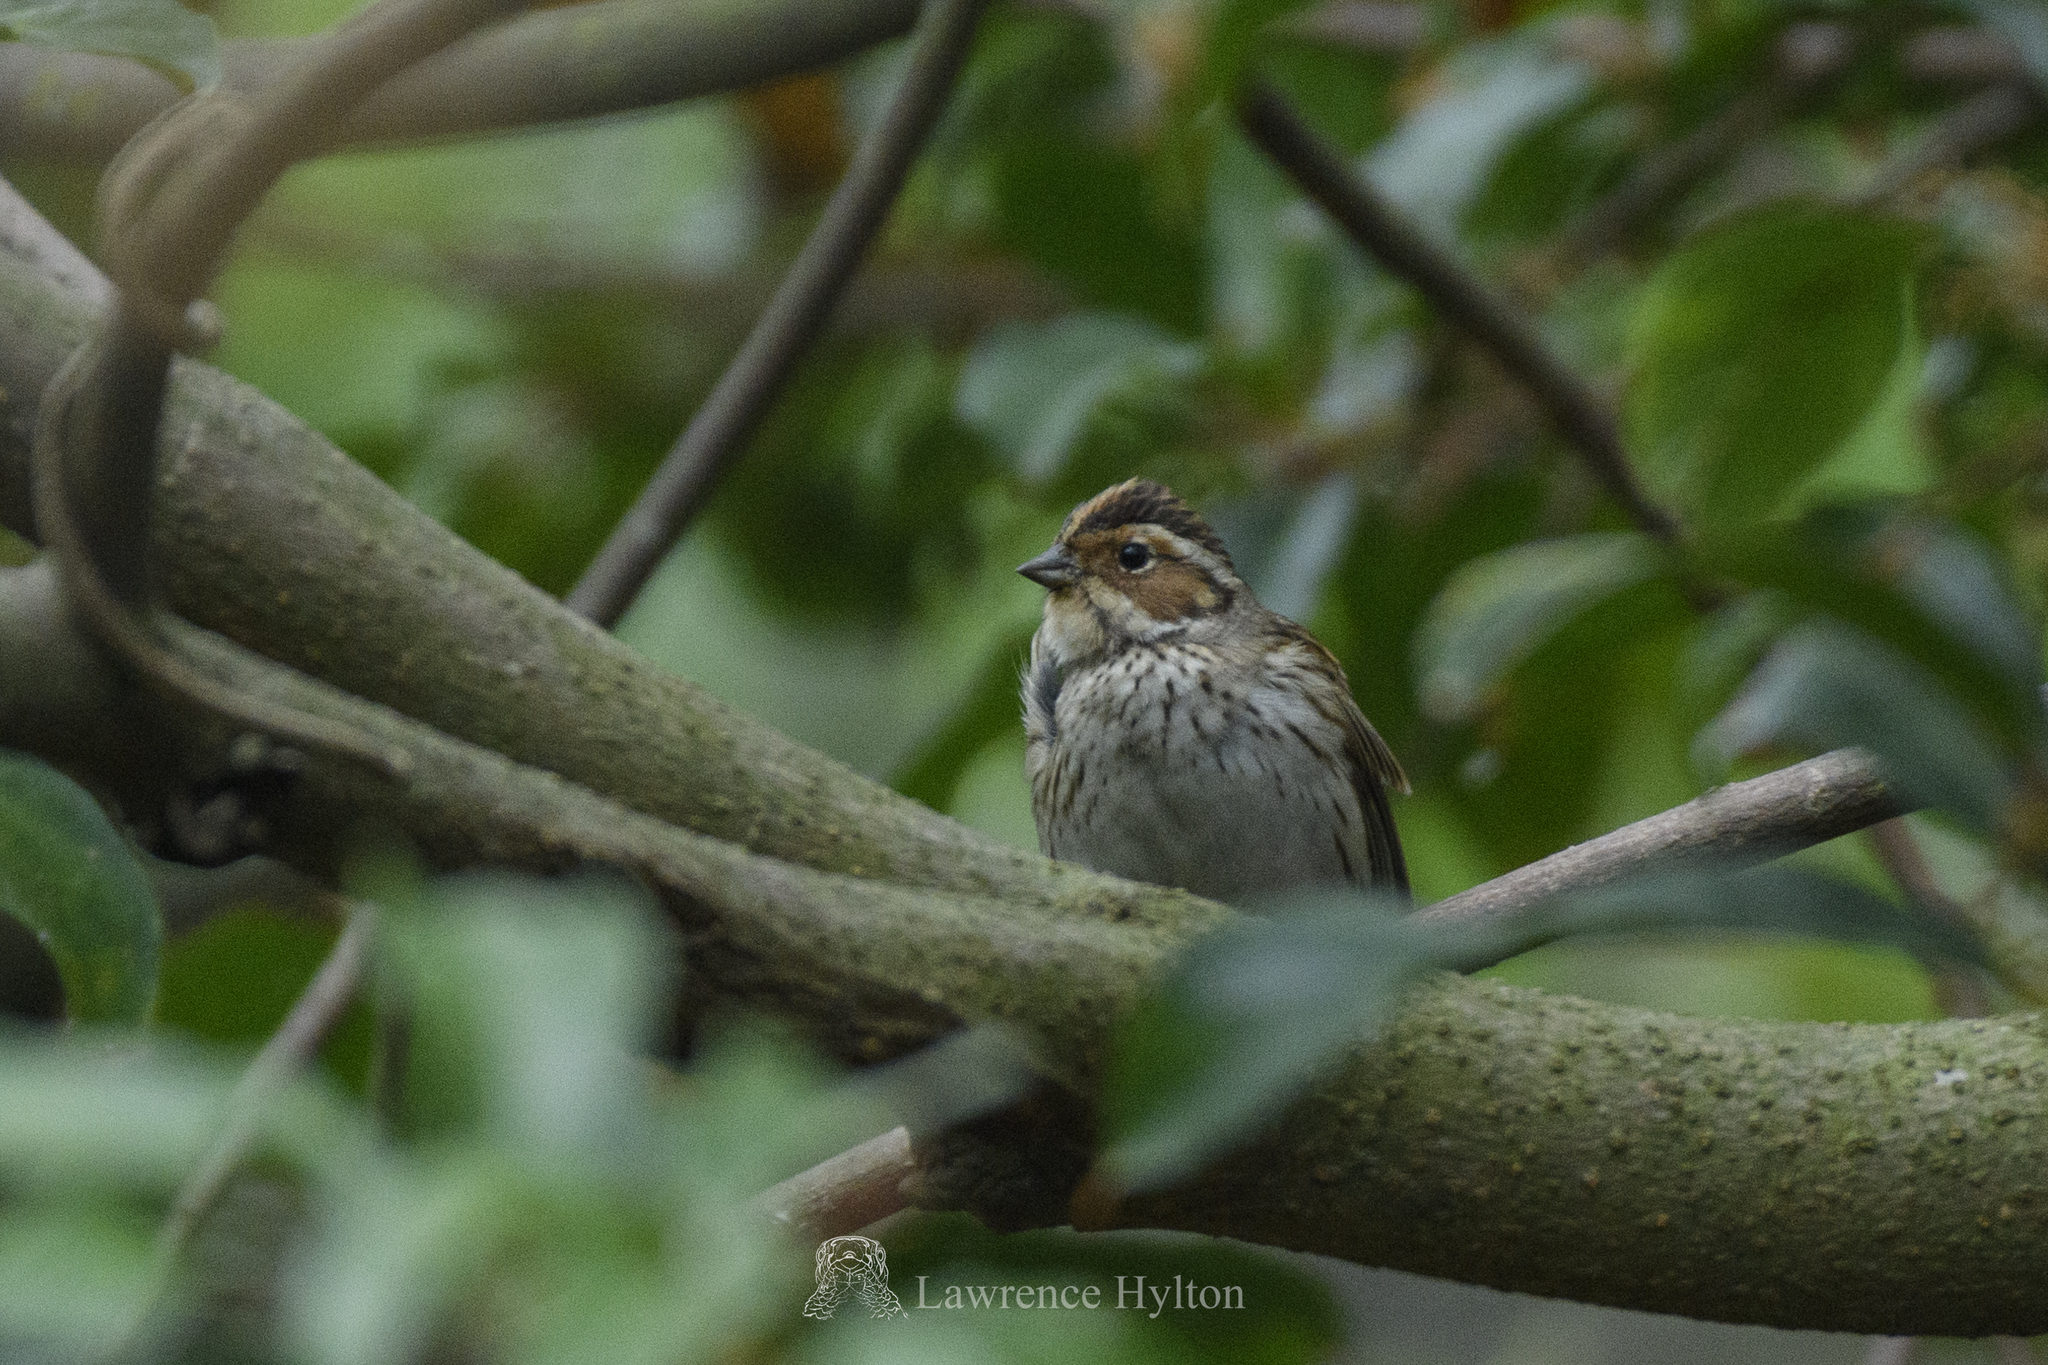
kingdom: Animalia
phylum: Chordata
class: Aves
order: Passeriformes
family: Emberizidae
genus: Emberiza
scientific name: Emberiza pusilla
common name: Little bunting
